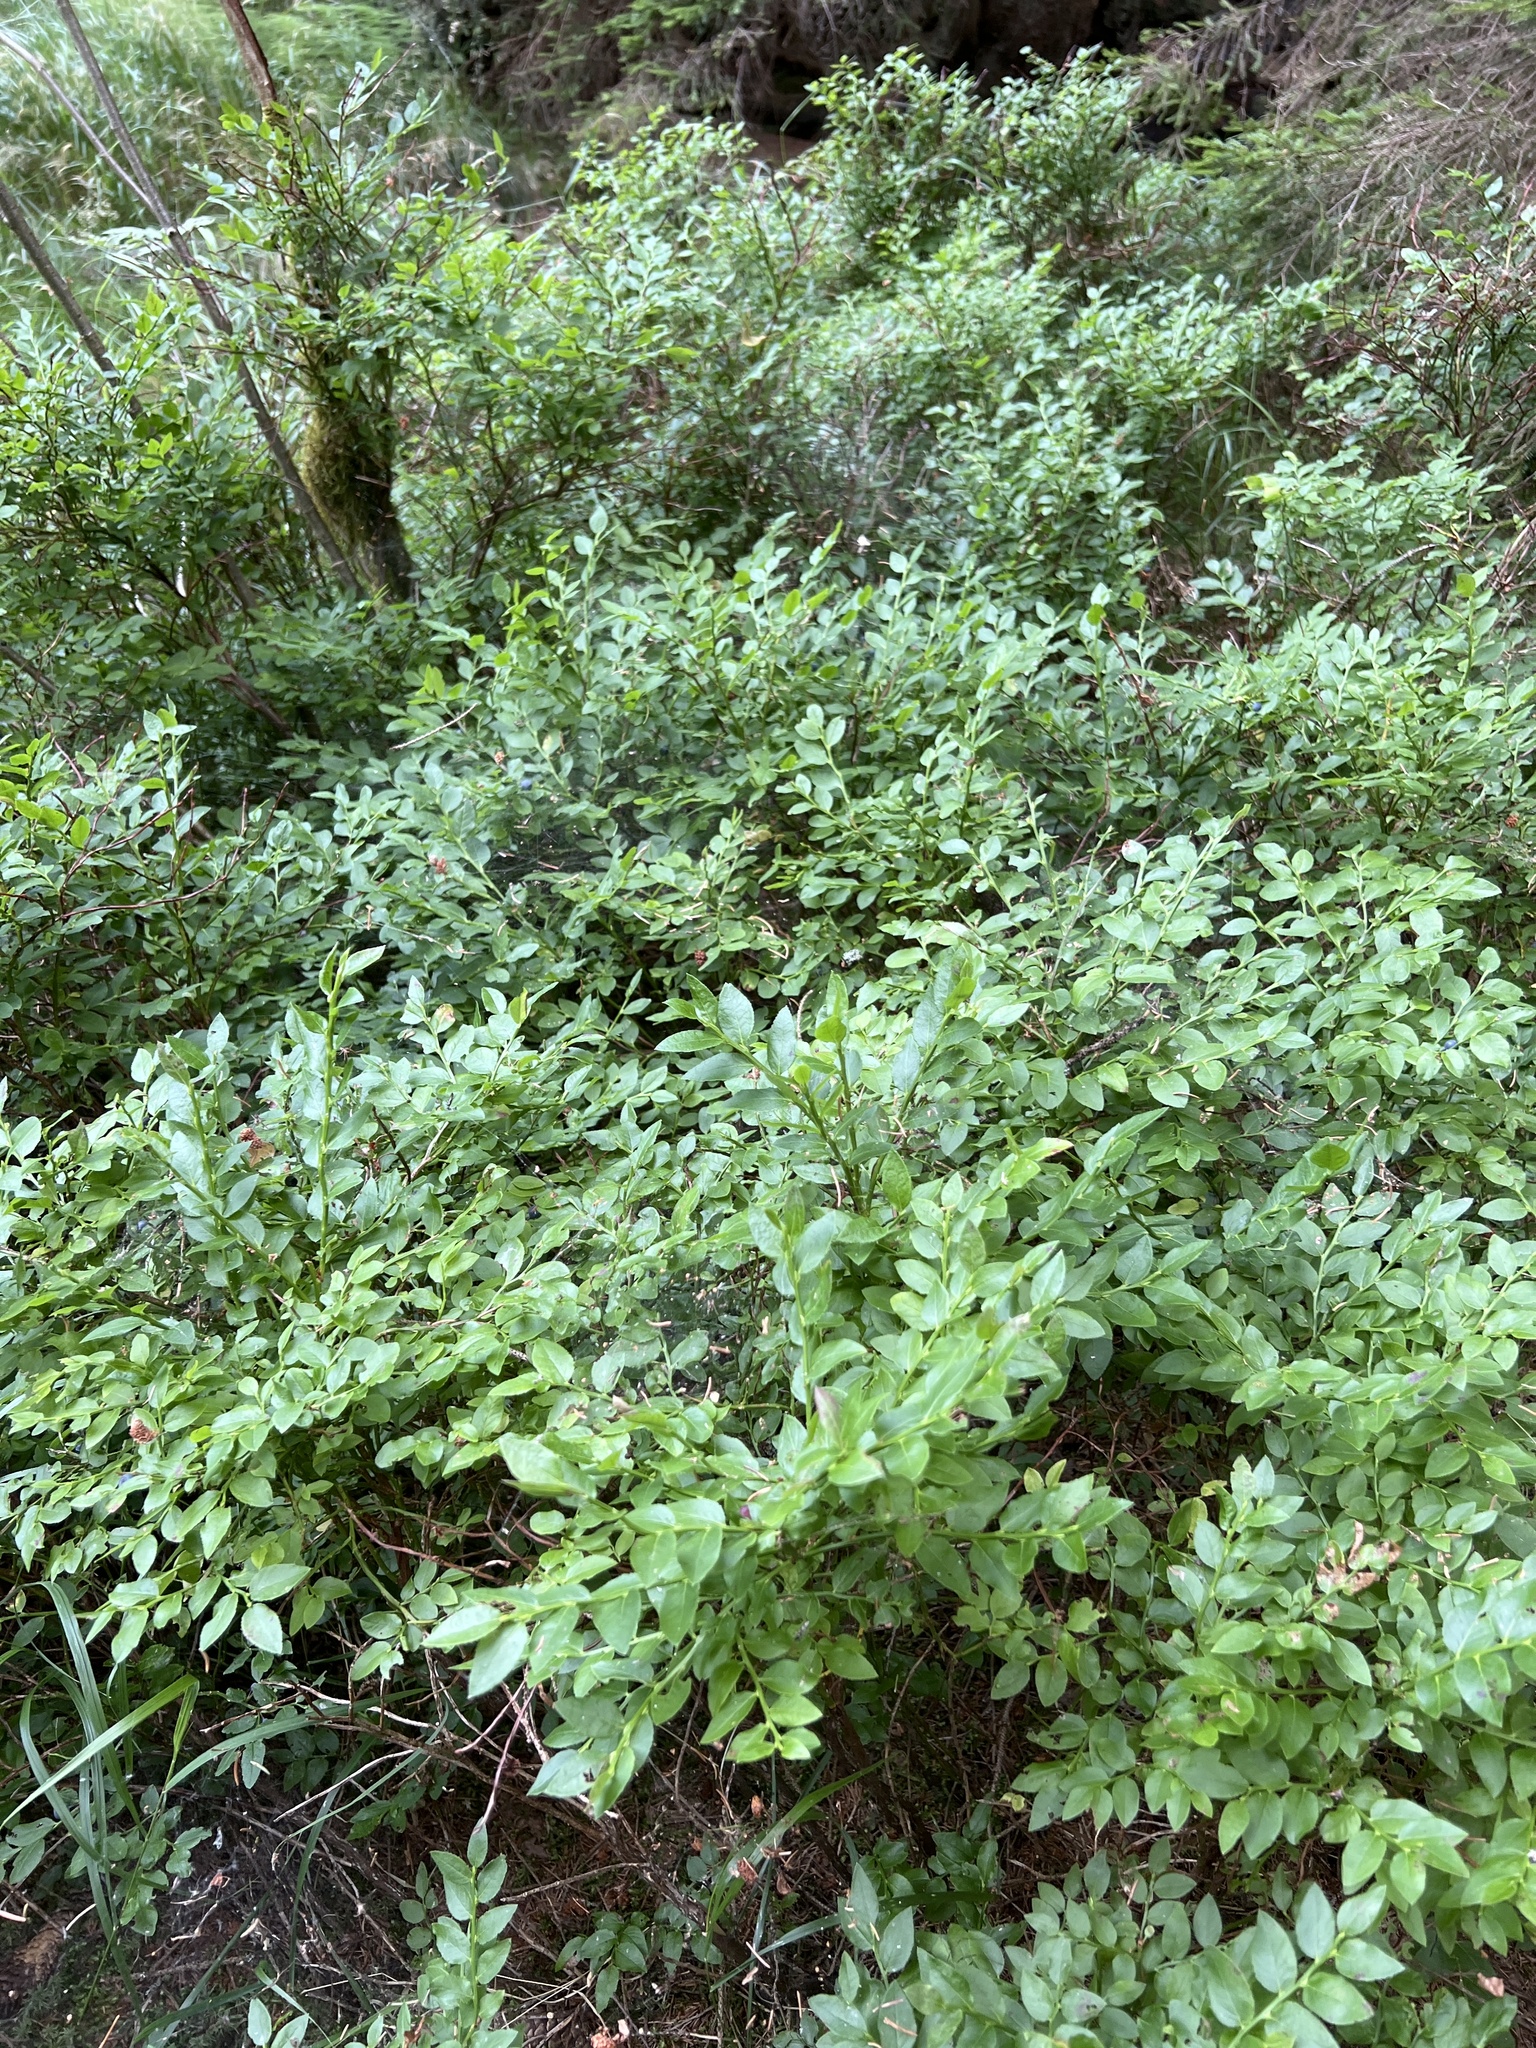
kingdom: Plantae
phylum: Tracheophyta
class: Magnoliopsida
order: Ericales
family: Ericaceae
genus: Vaccinium
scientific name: Vaccinium myrtillus
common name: Bilberry
